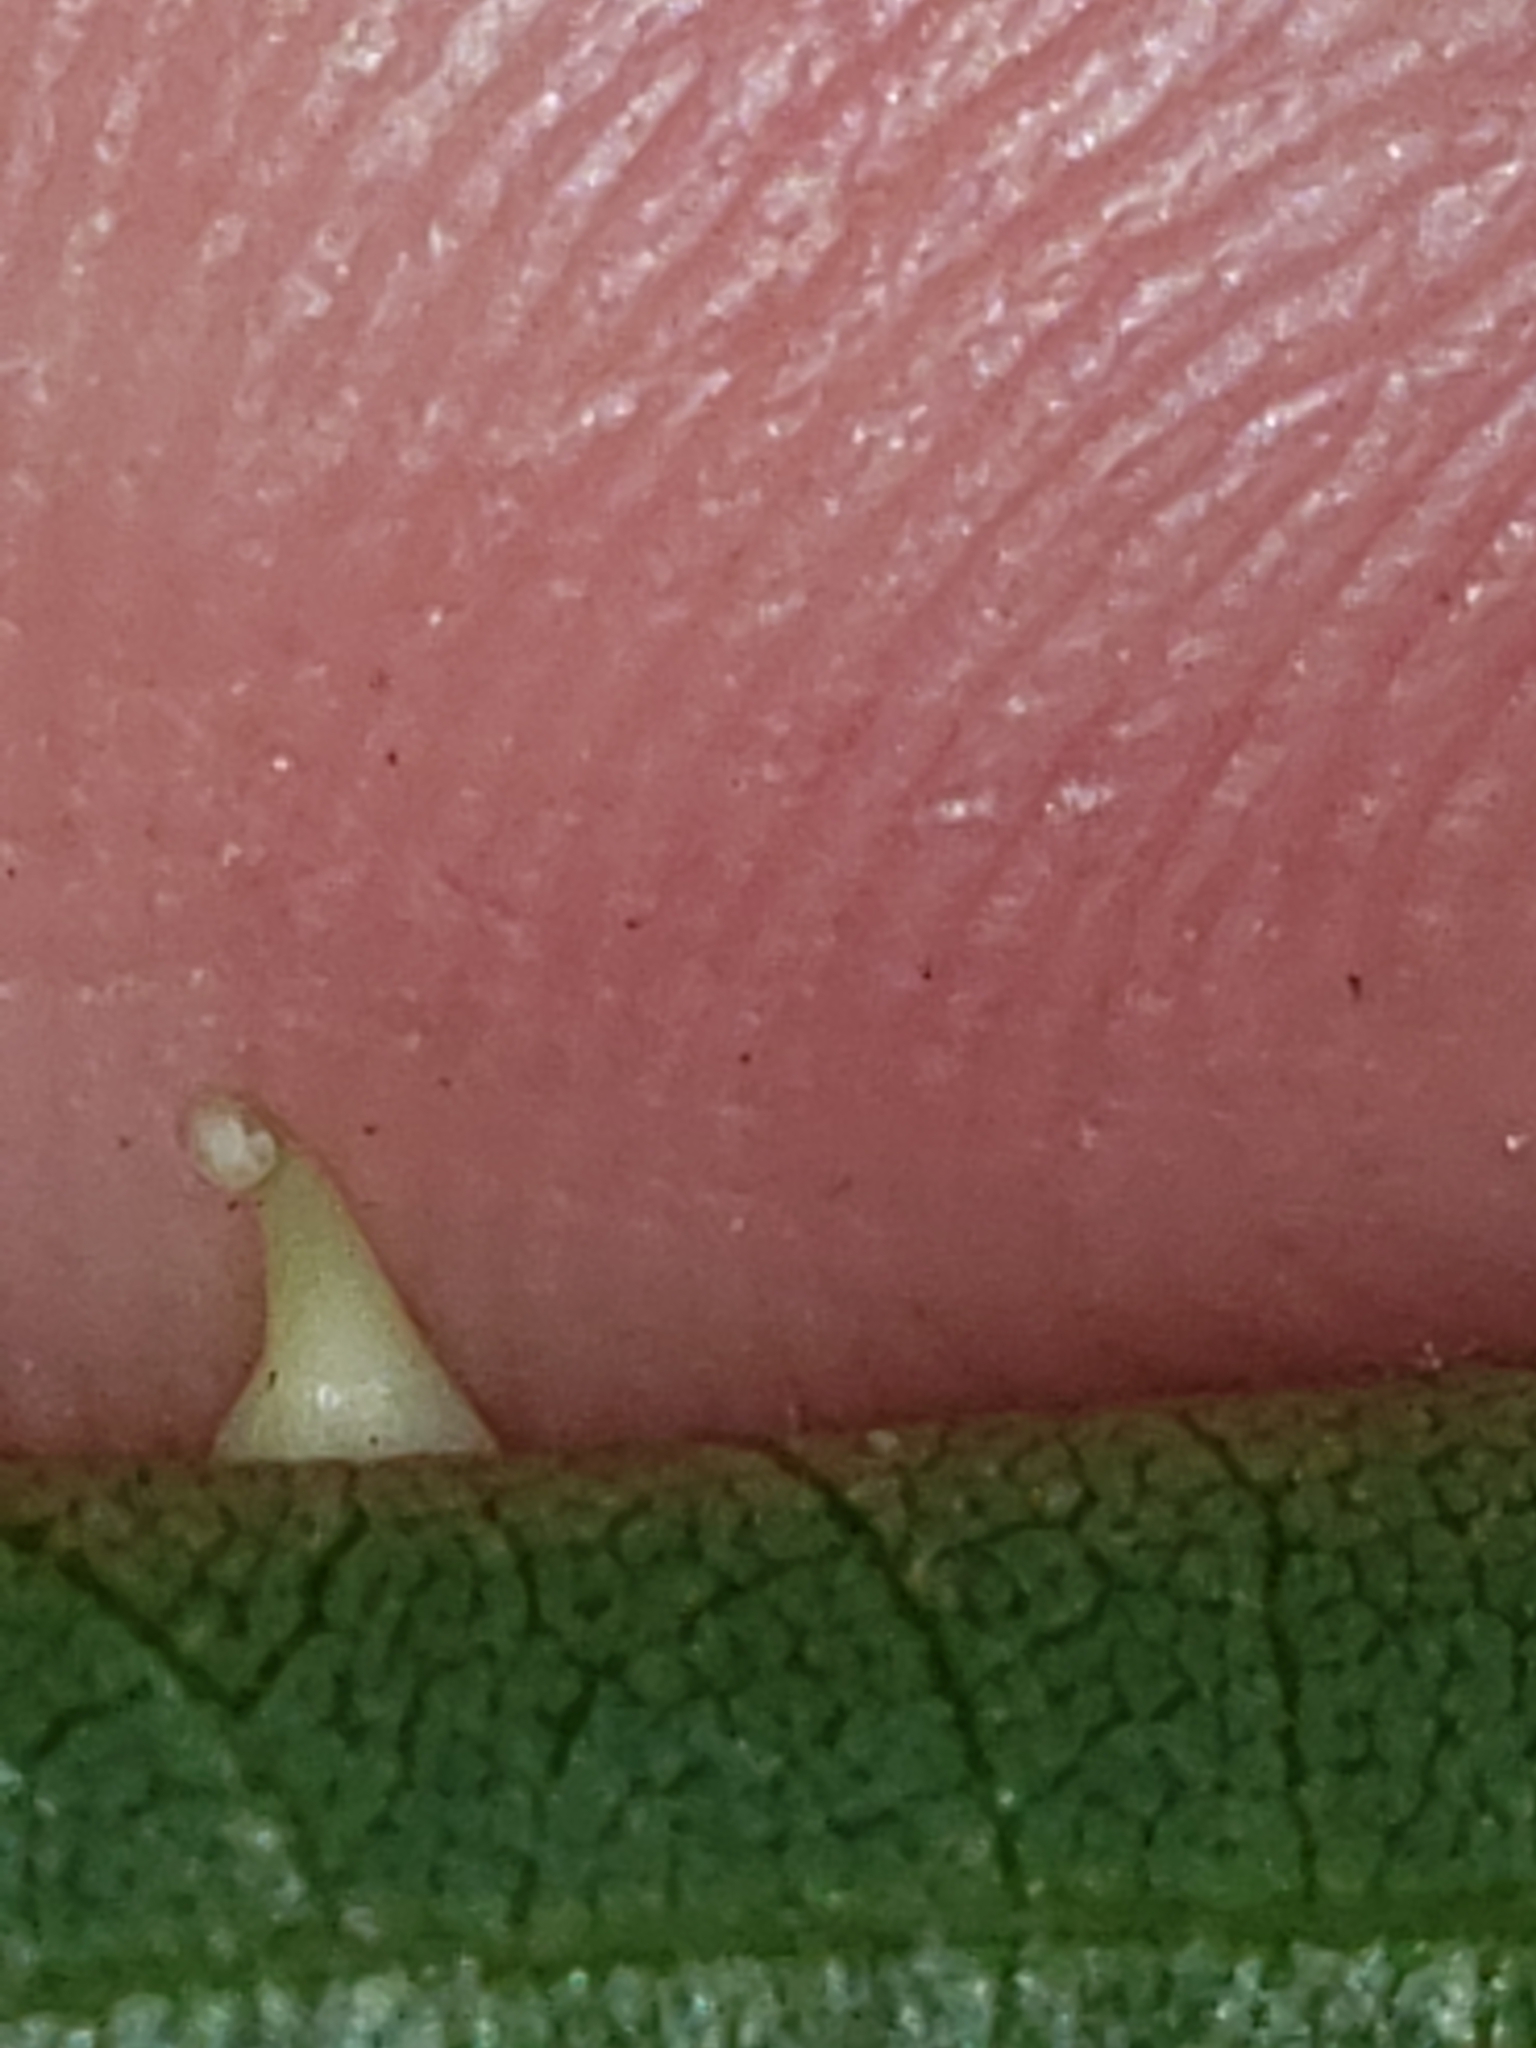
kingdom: Animalia
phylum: Arthropoda
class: Insecta
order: Diptera
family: Cecidomyiidae
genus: Caryomyia
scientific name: Caryomyia stellata
